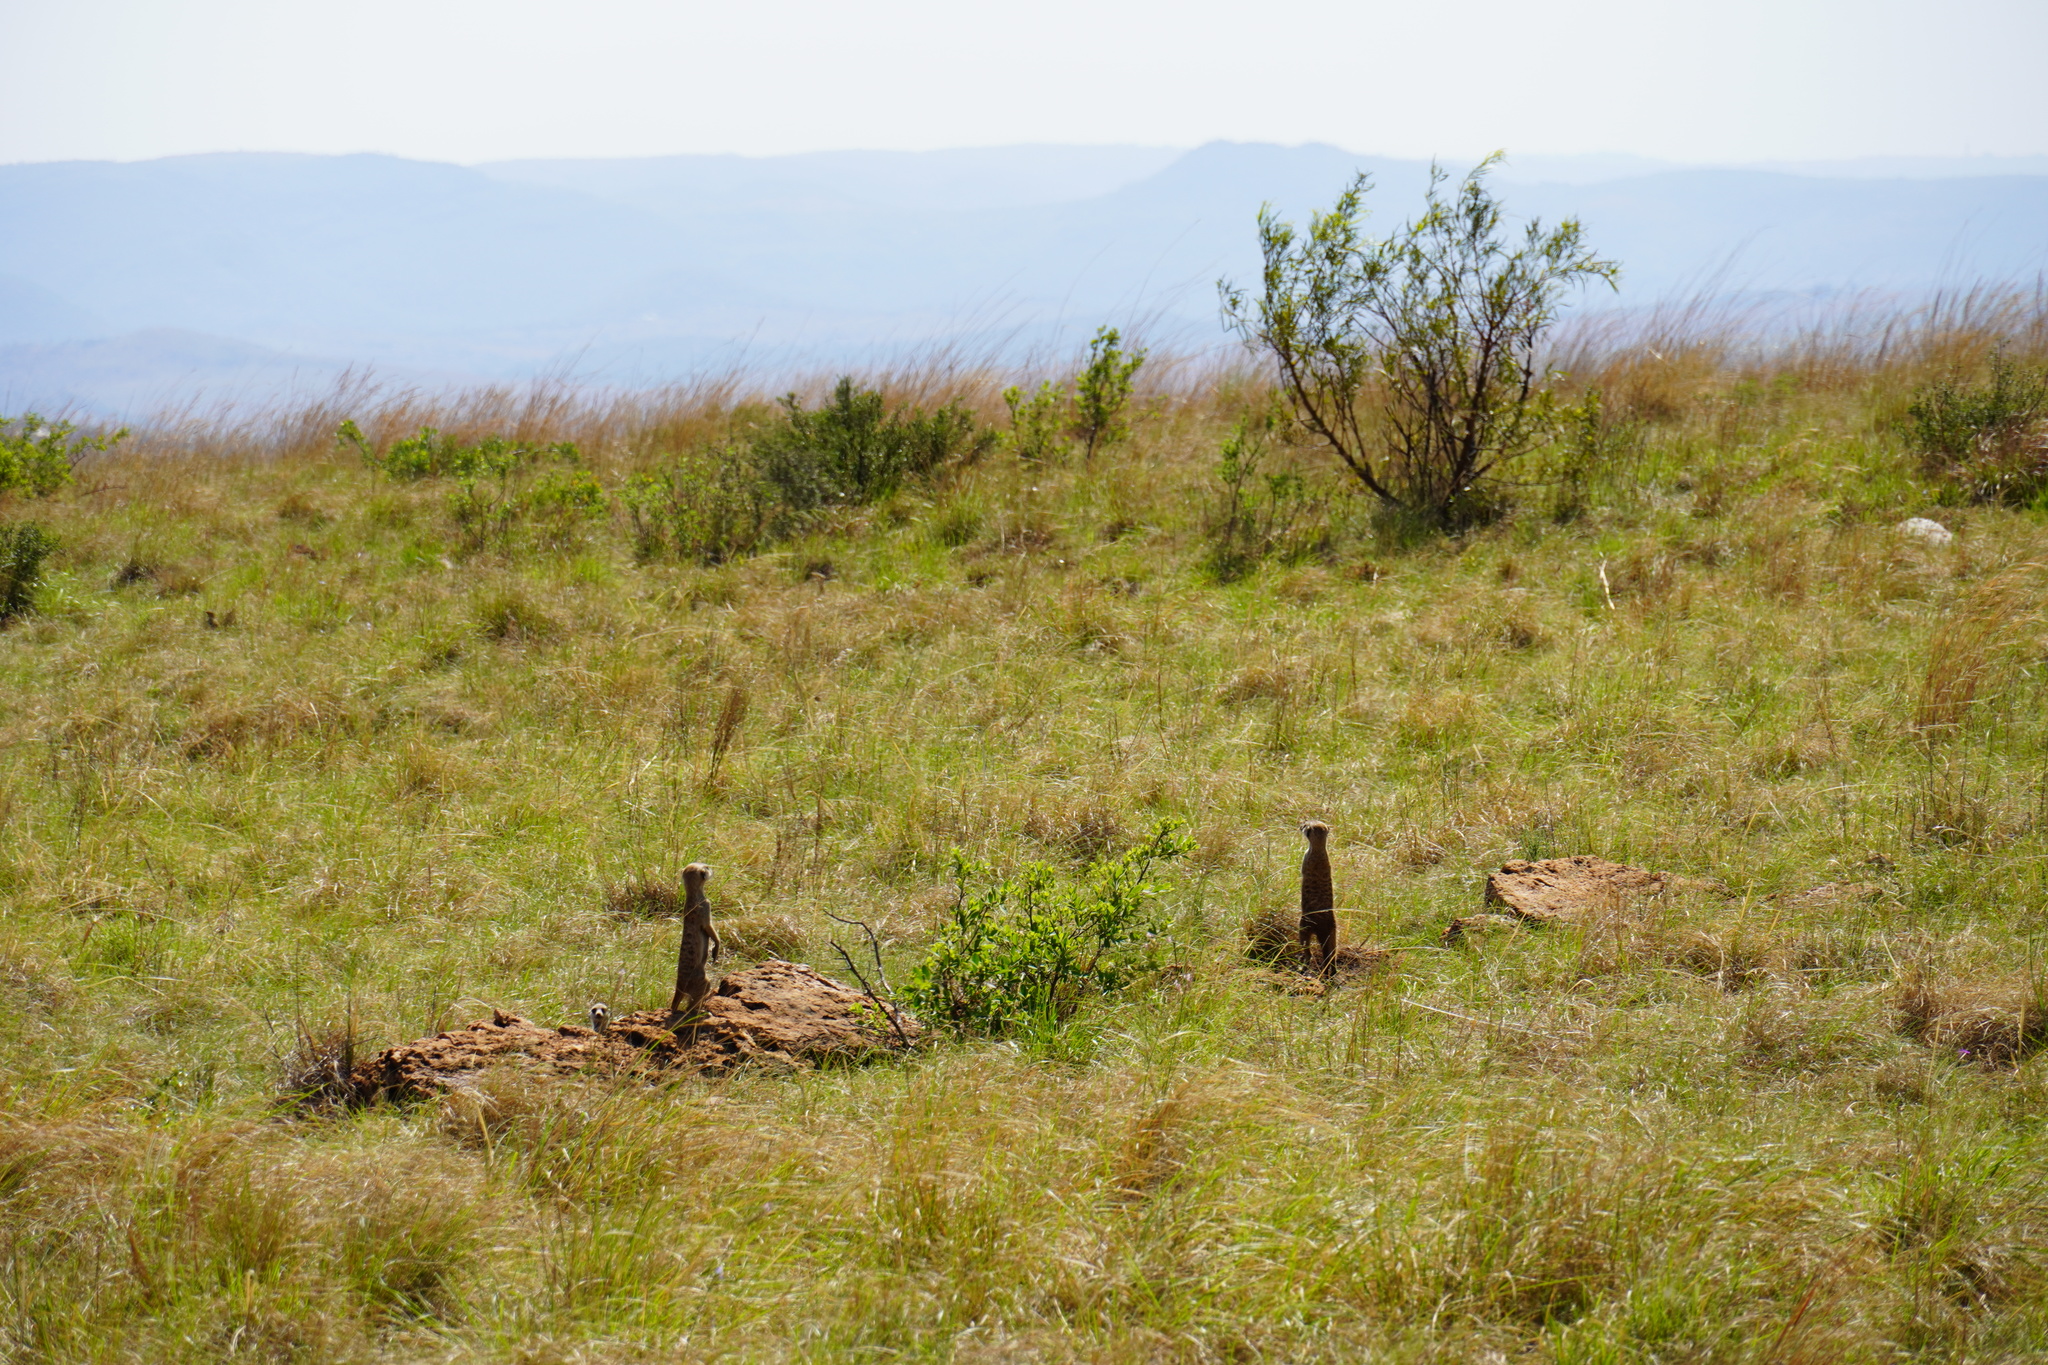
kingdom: Animalia
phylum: Chordata
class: Mammalia
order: Carnivora
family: Herpestidae
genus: Suricata
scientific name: Suricata suricatta
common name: Meerkat
